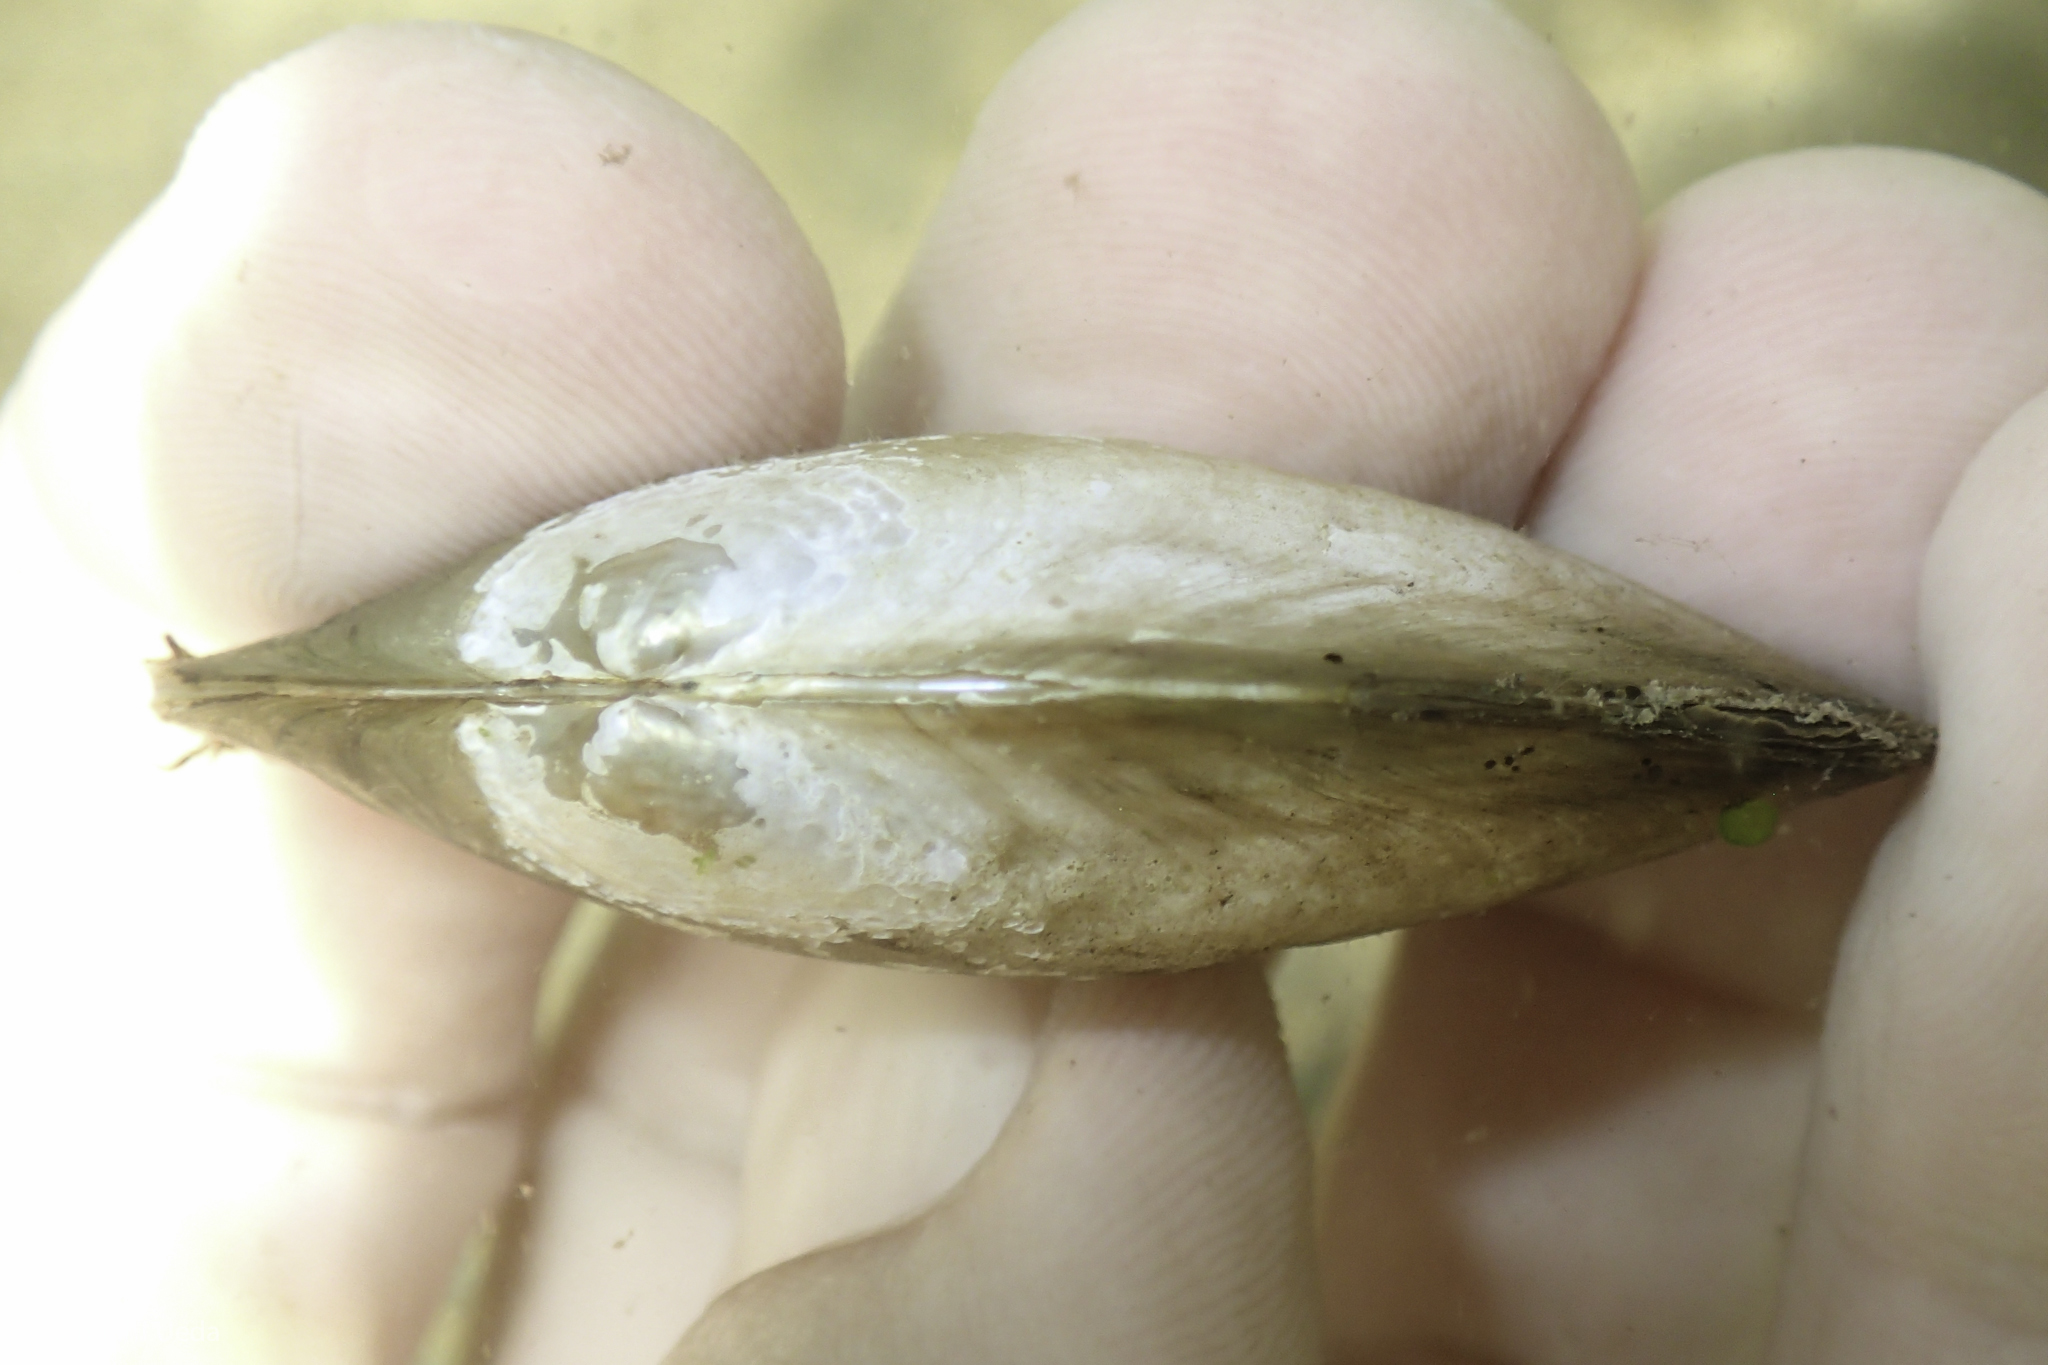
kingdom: Animalia
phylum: Mollusca
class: Bivalvia
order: Unionida
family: Unionidae
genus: Anodonta
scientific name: Anodonta californiensis
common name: California floater
